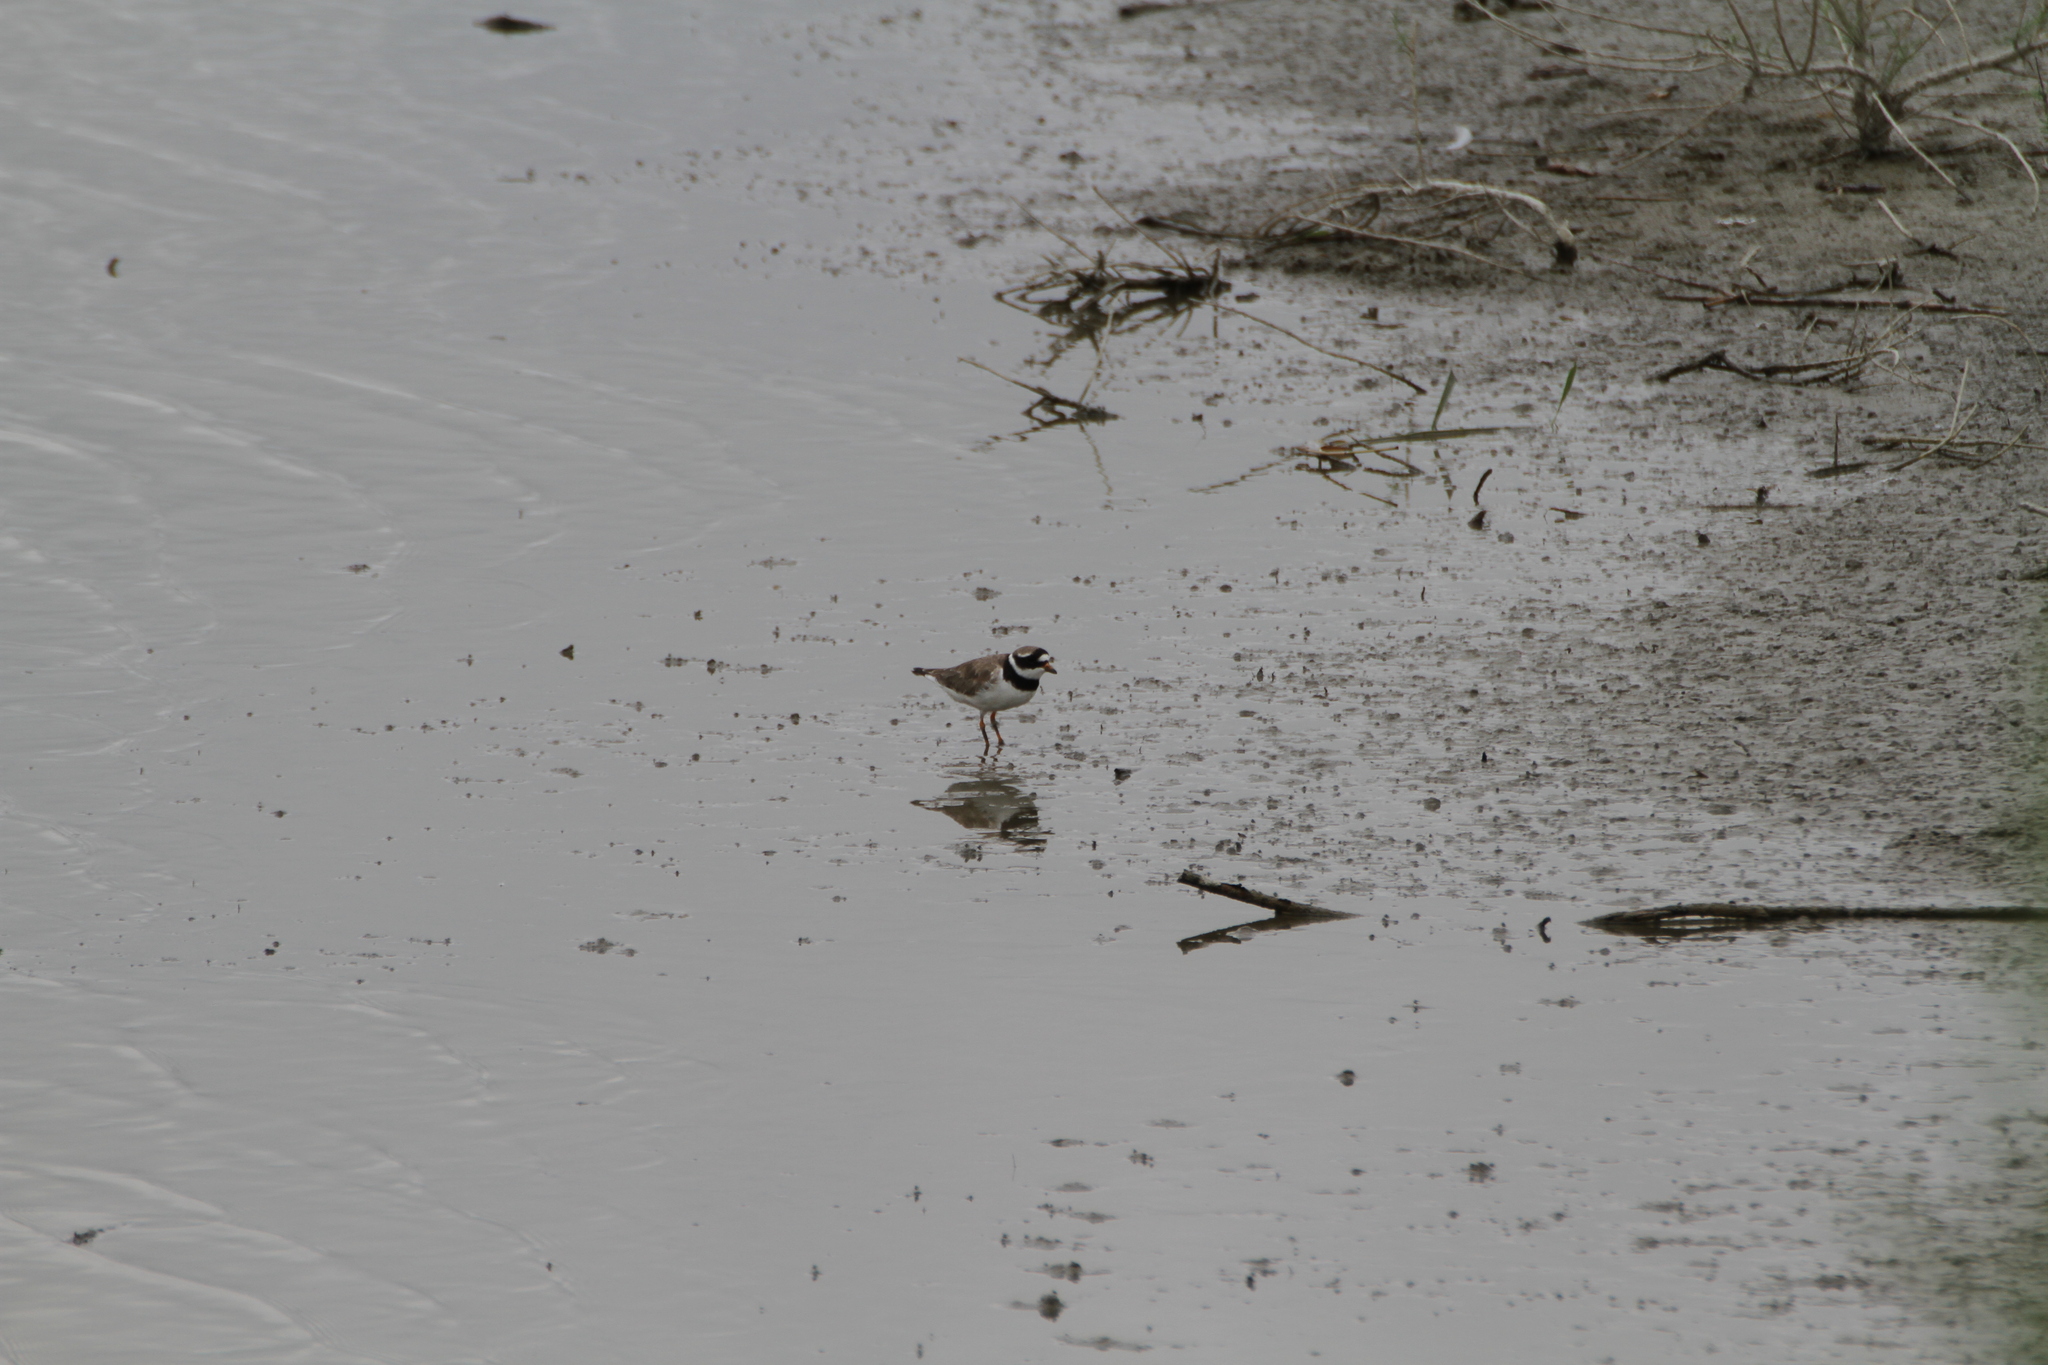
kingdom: Animalia
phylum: Chordata
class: Aves
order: Charadriiformes
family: Charadriidae
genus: Charadrius
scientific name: Charadrius hiaticula
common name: Common ringed plover
